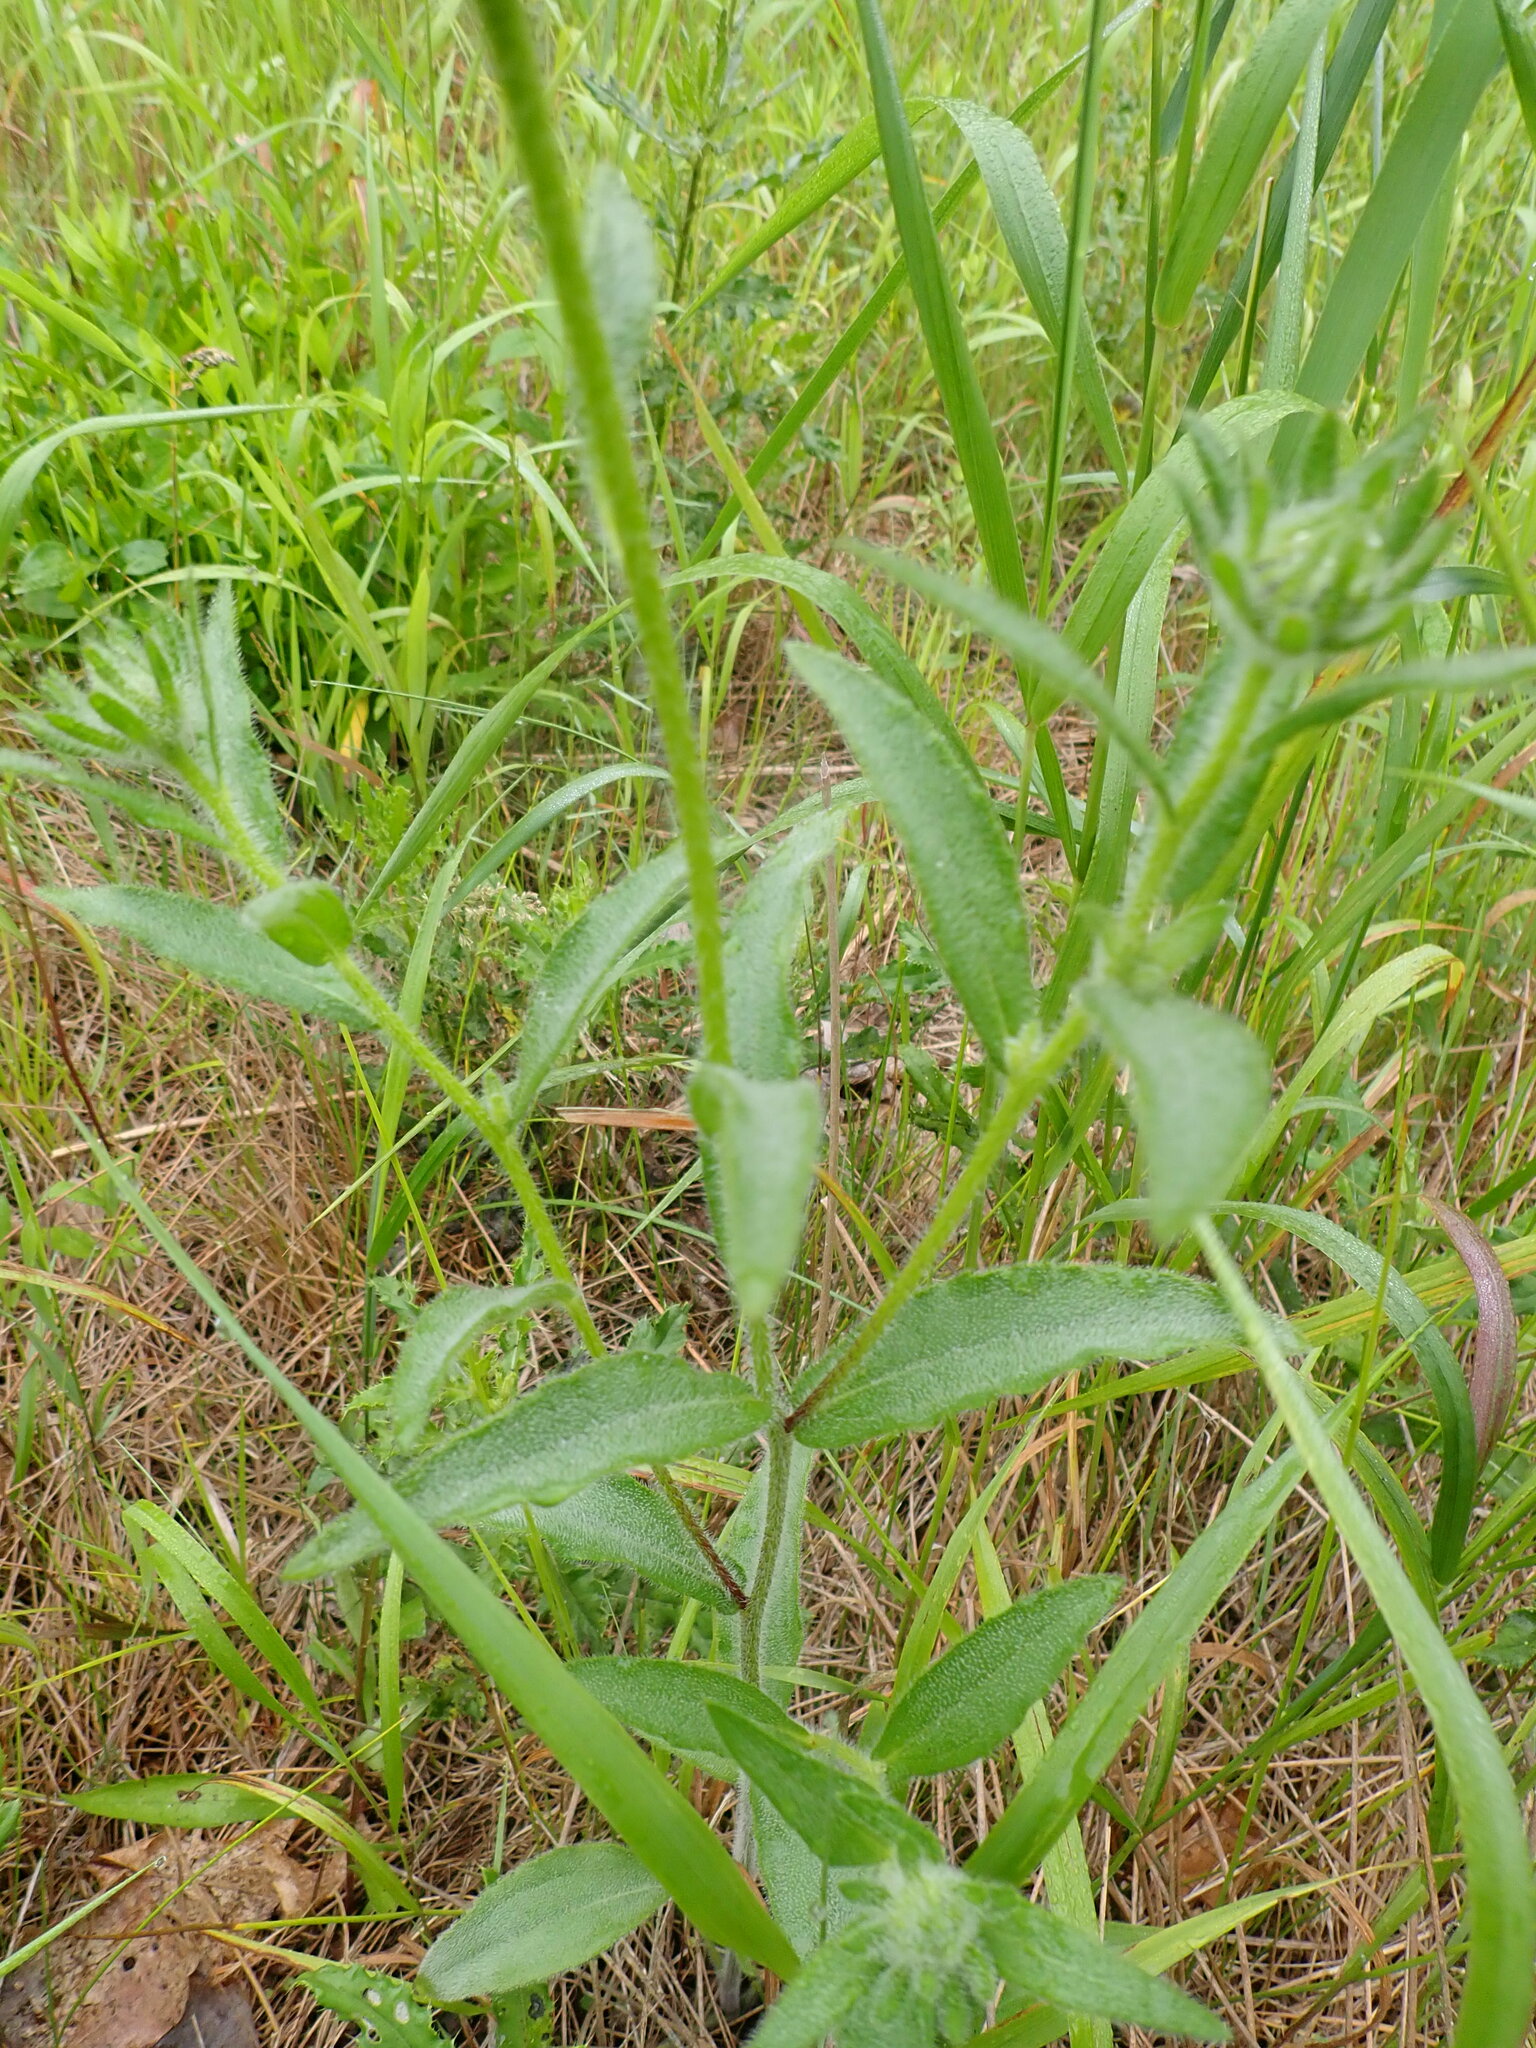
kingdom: Plantae
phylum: Tracheophyta
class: Magnoliopsida
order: Asterales
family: Asteraceae
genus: Rudbeckia
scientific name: Rudbeckia hirta
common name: Black-eyed-susan
